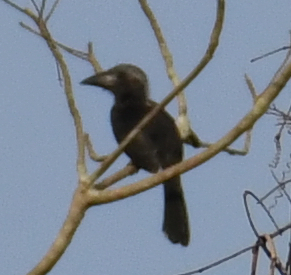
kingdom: Animalia
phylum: Chordata
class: Aves
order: Bucerotiformes
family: Bucerotidae
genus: Horizocerus
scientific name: Horizocerus hartlaubi
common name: Black dwarf hornbill
